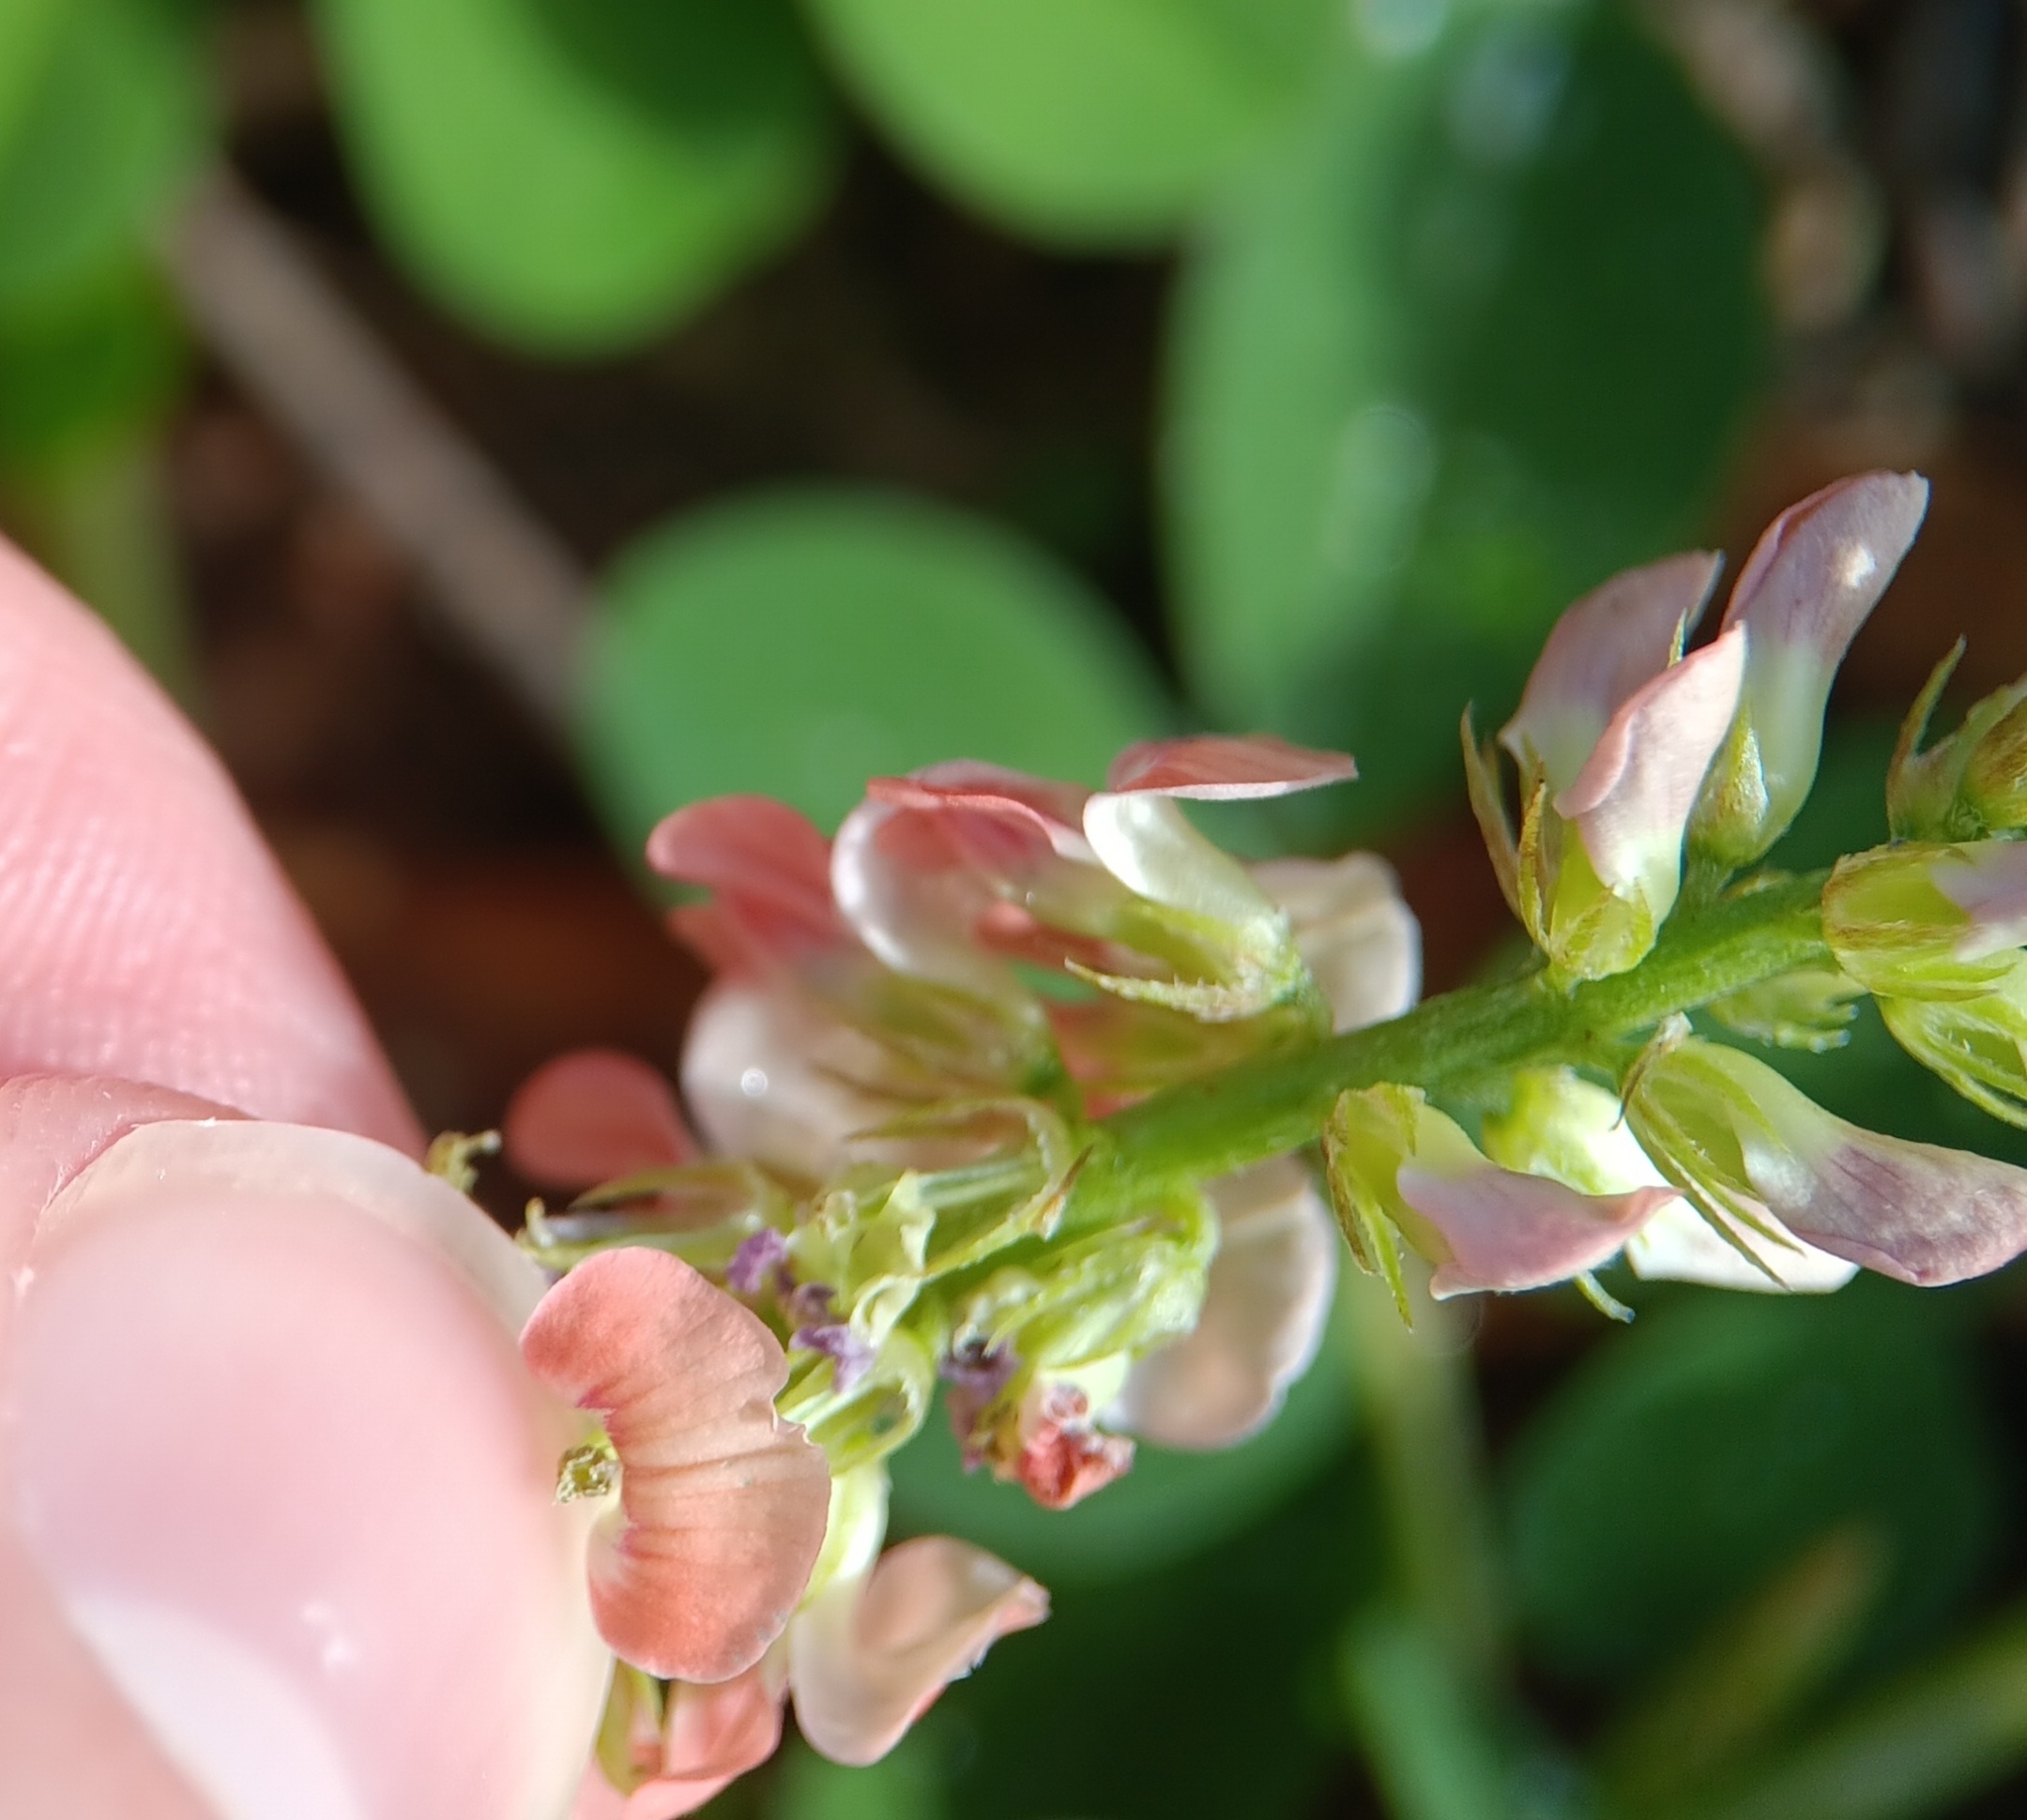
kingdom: Plantae
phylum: Tracheophyta
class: Magnoliopsida
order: Fabales
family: Fabaceae
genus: Indigofera
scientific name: Indigofera spicata
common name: Creeping indigo
